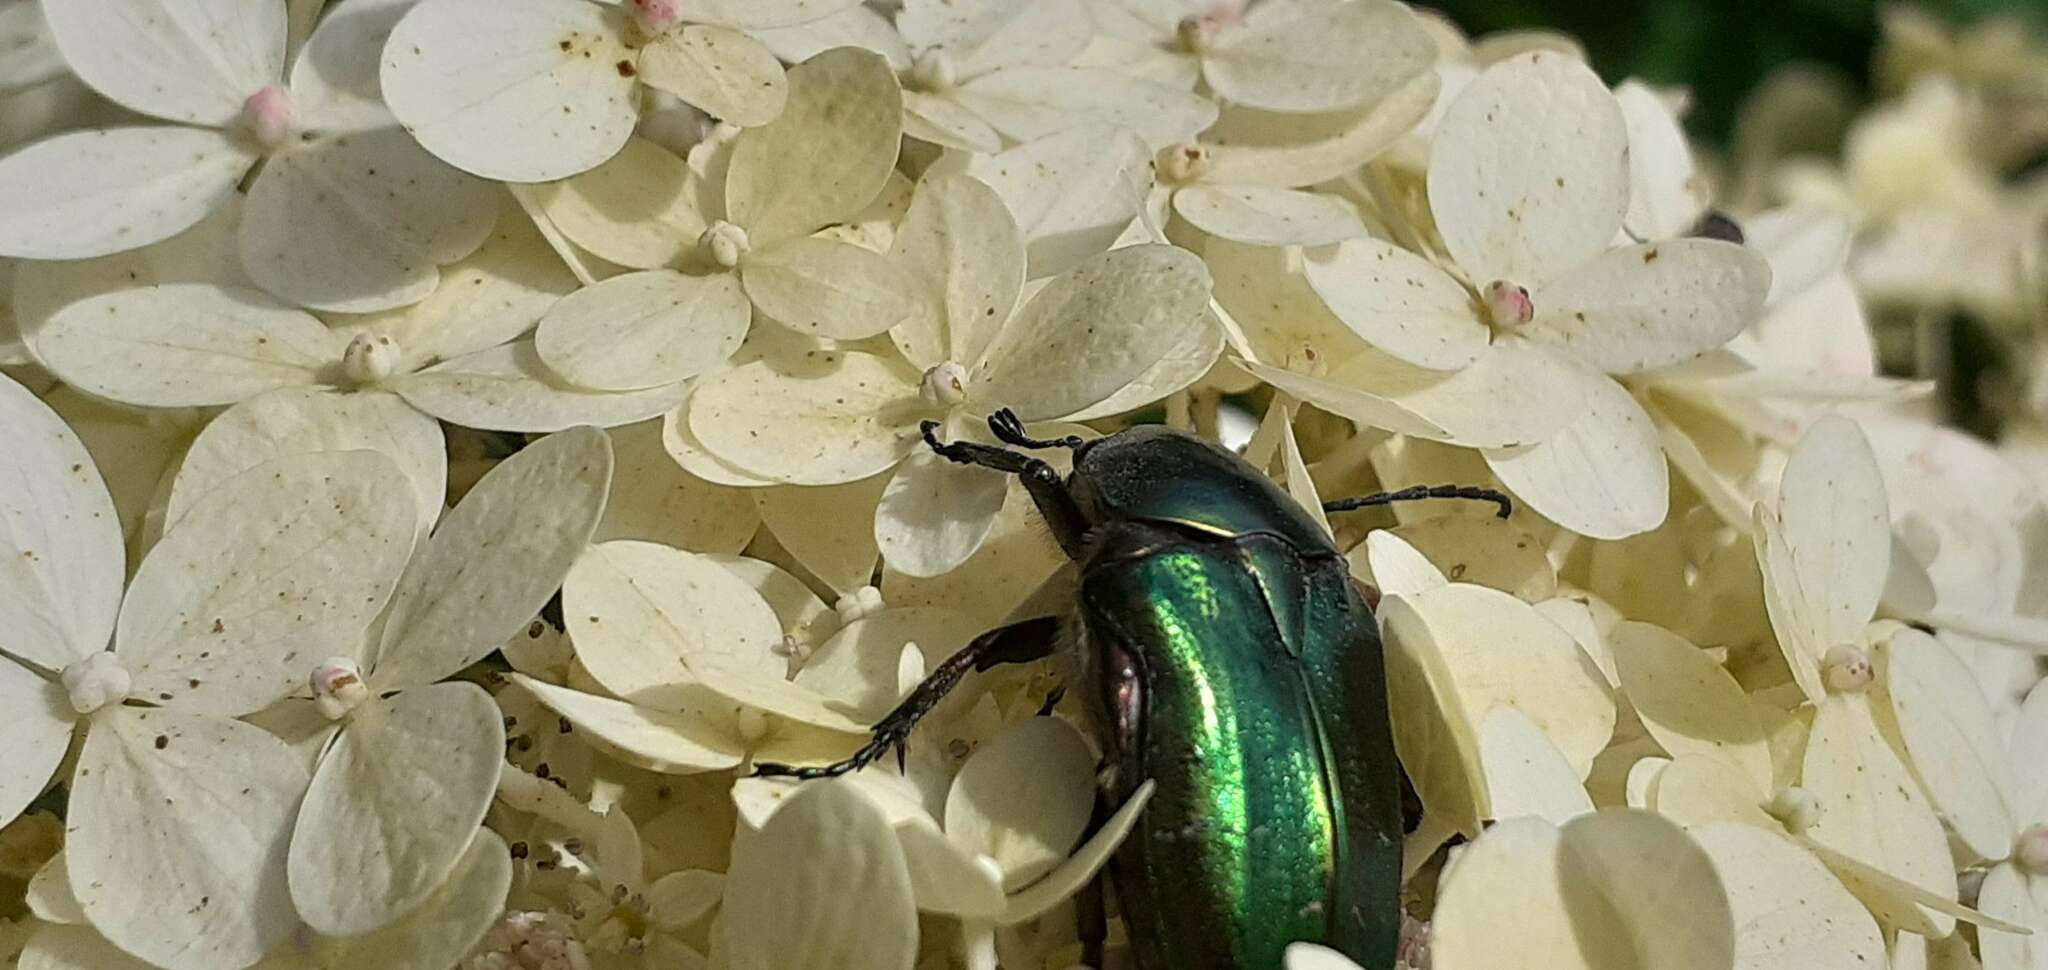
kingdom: Animalia
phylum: Arthropoda
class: Insecta
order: Coleoptera
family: Scarabaeidae
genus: Cetonia
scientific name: Cetonia aurata
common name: Rose chafer
